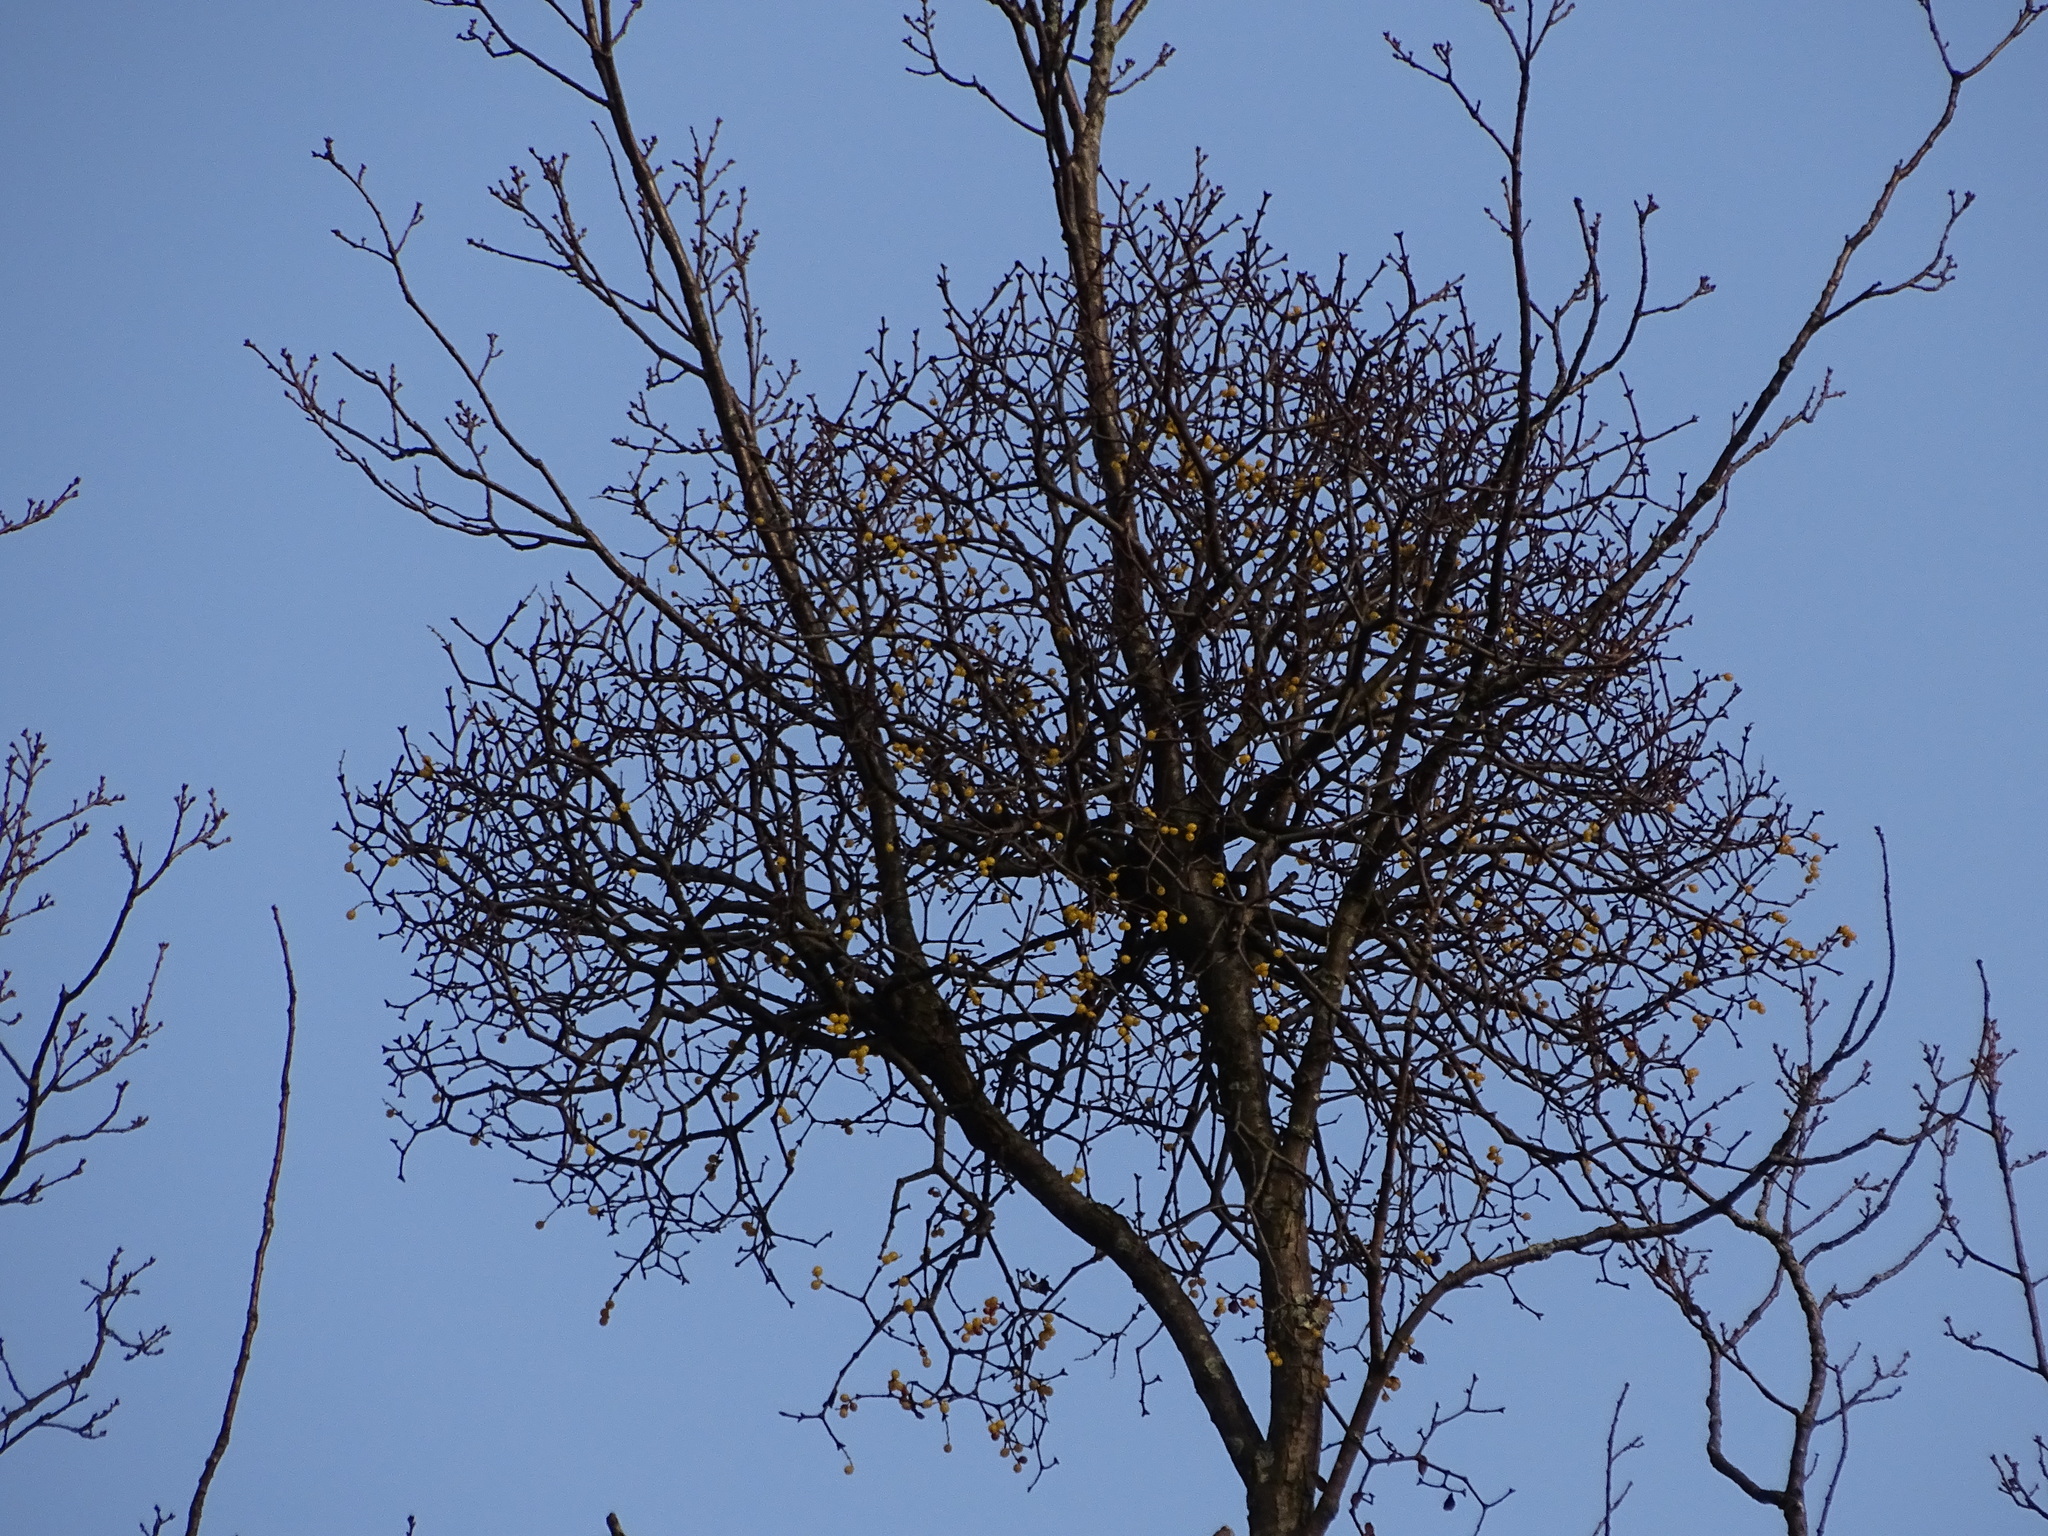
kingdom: Plantae
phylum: Tracheophyta
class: Magnoliopsida
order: Santalales
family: Loranthaceae
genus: Loranthus
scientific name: Loranthus europaeus
